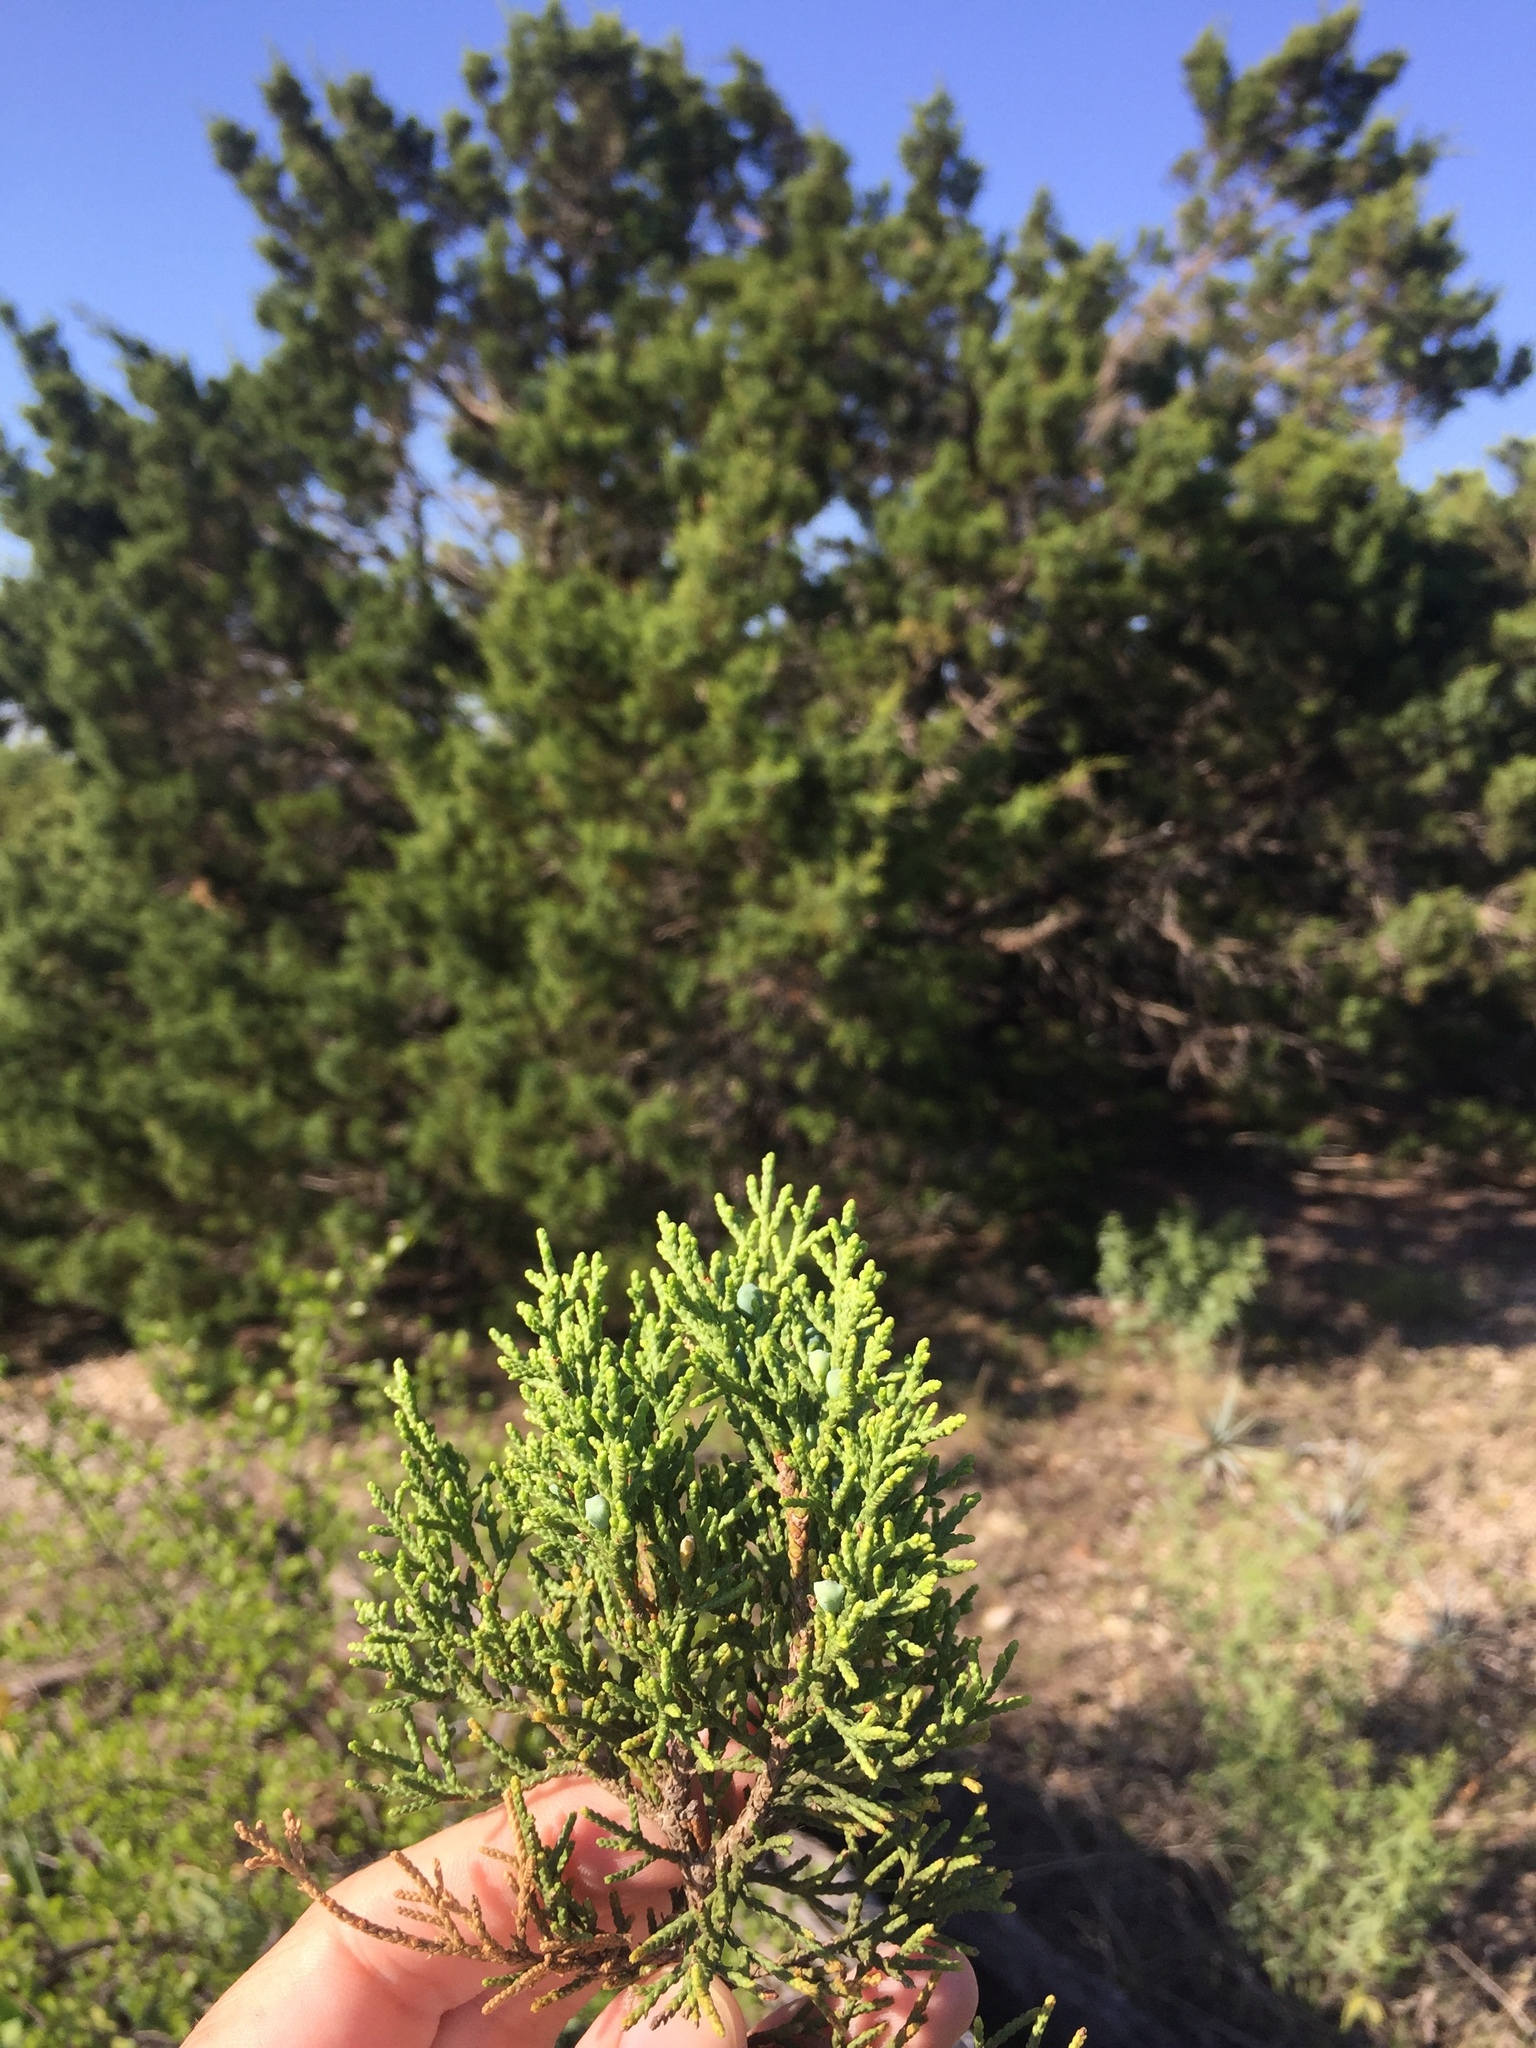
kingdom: Plantae
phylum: Tracheophyta
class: Pinopsida
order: Pinales
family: Cupressaceae
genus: Juniperus
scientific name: Juniperus ashei
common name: Mexican juniper
